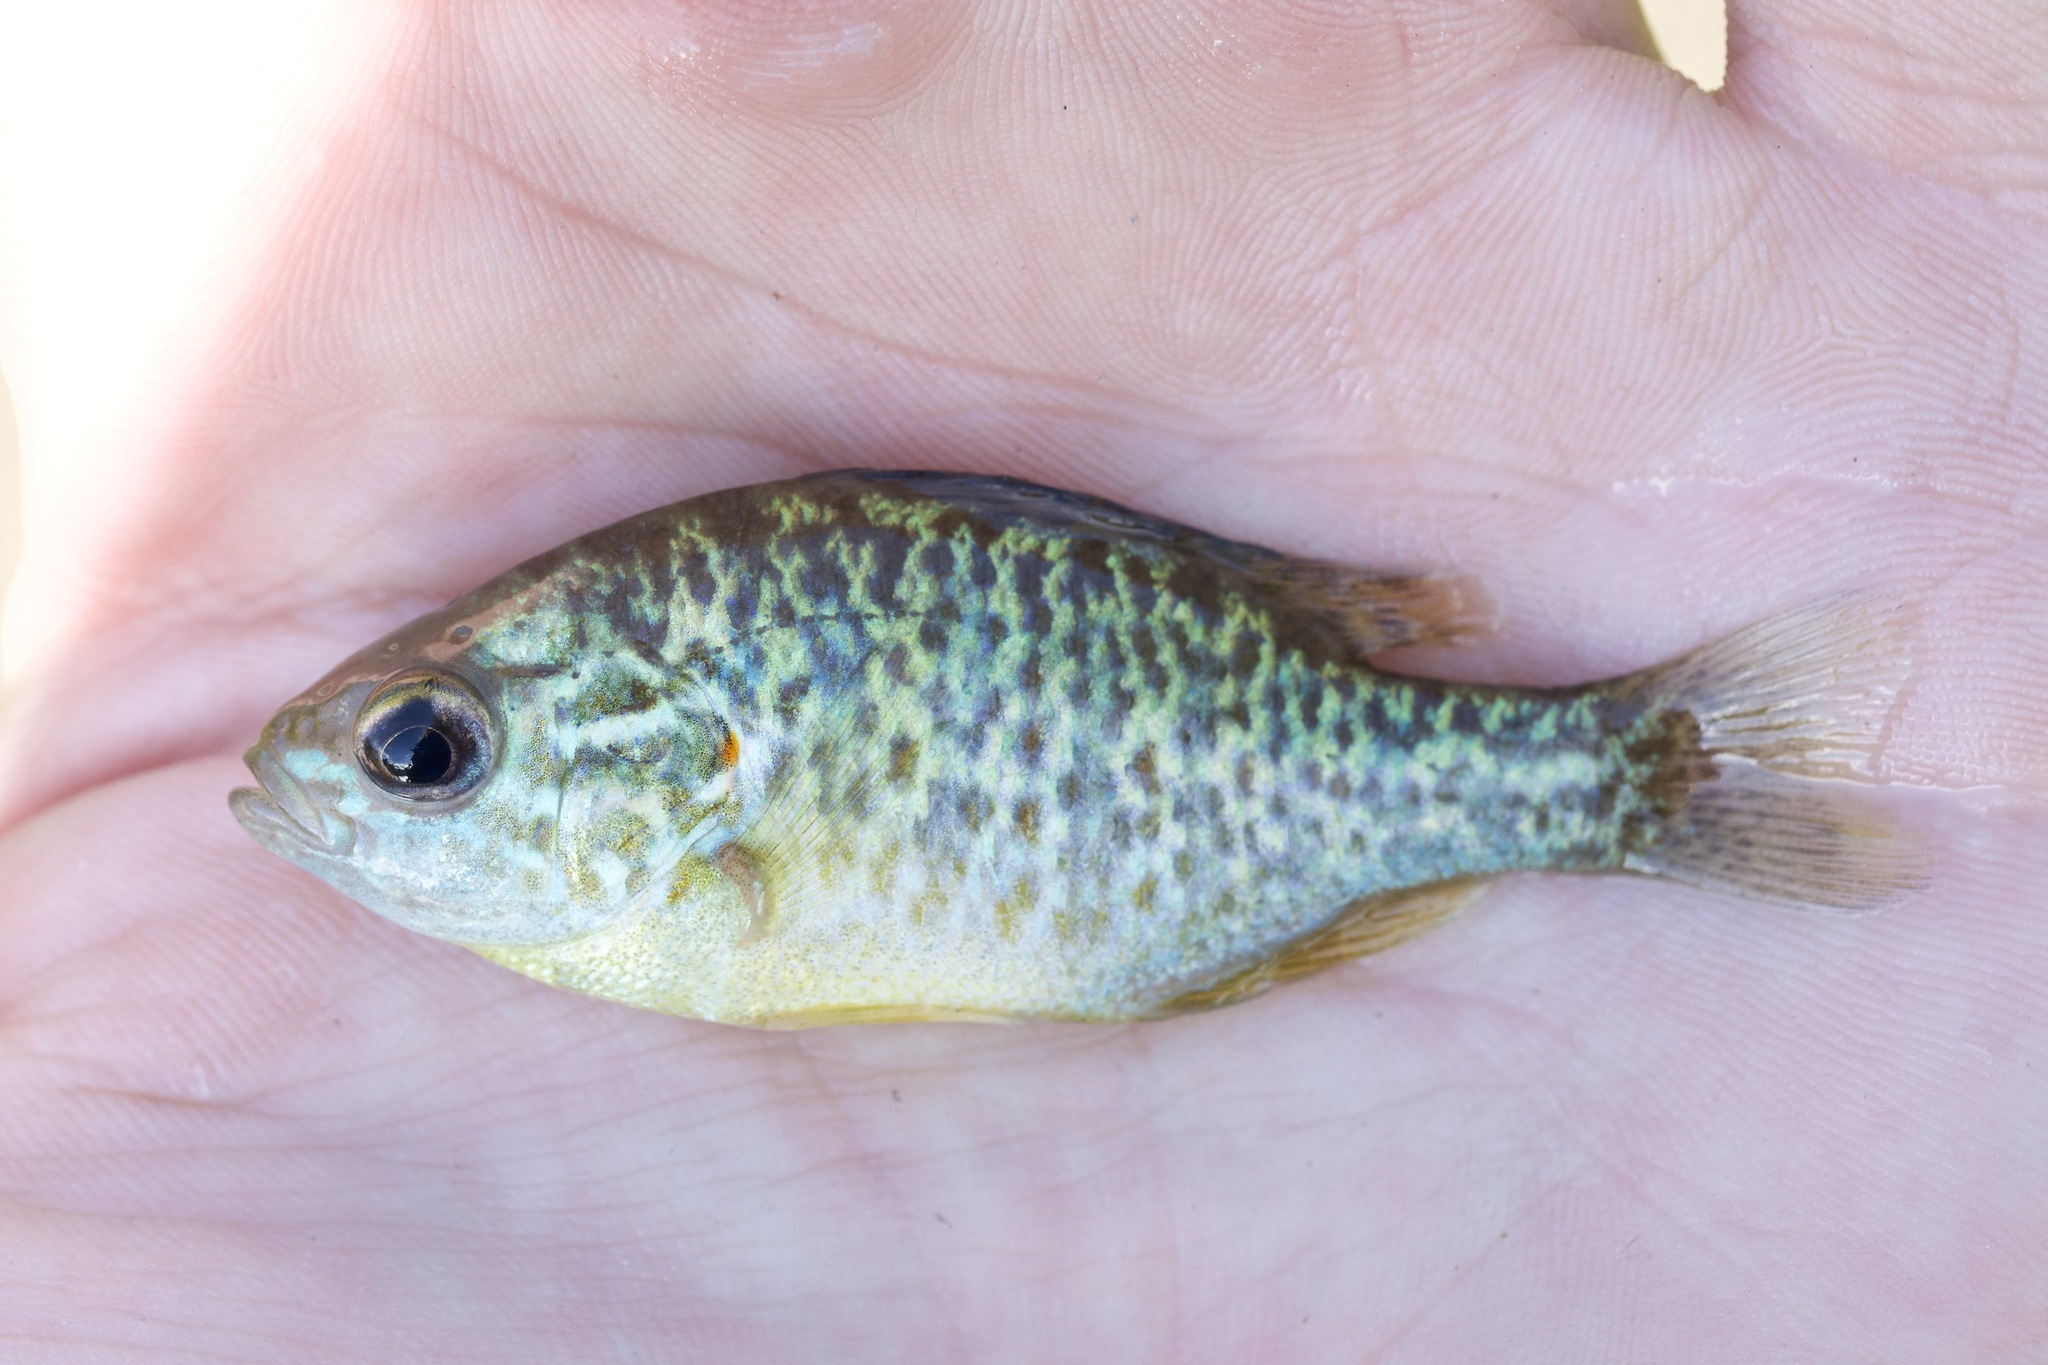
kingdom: Animalia
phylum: Chordata
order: Perciformes
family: Centrarchidae
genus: Lepomis
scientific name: Lepomis gibbosus
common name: Pumpkinseed
